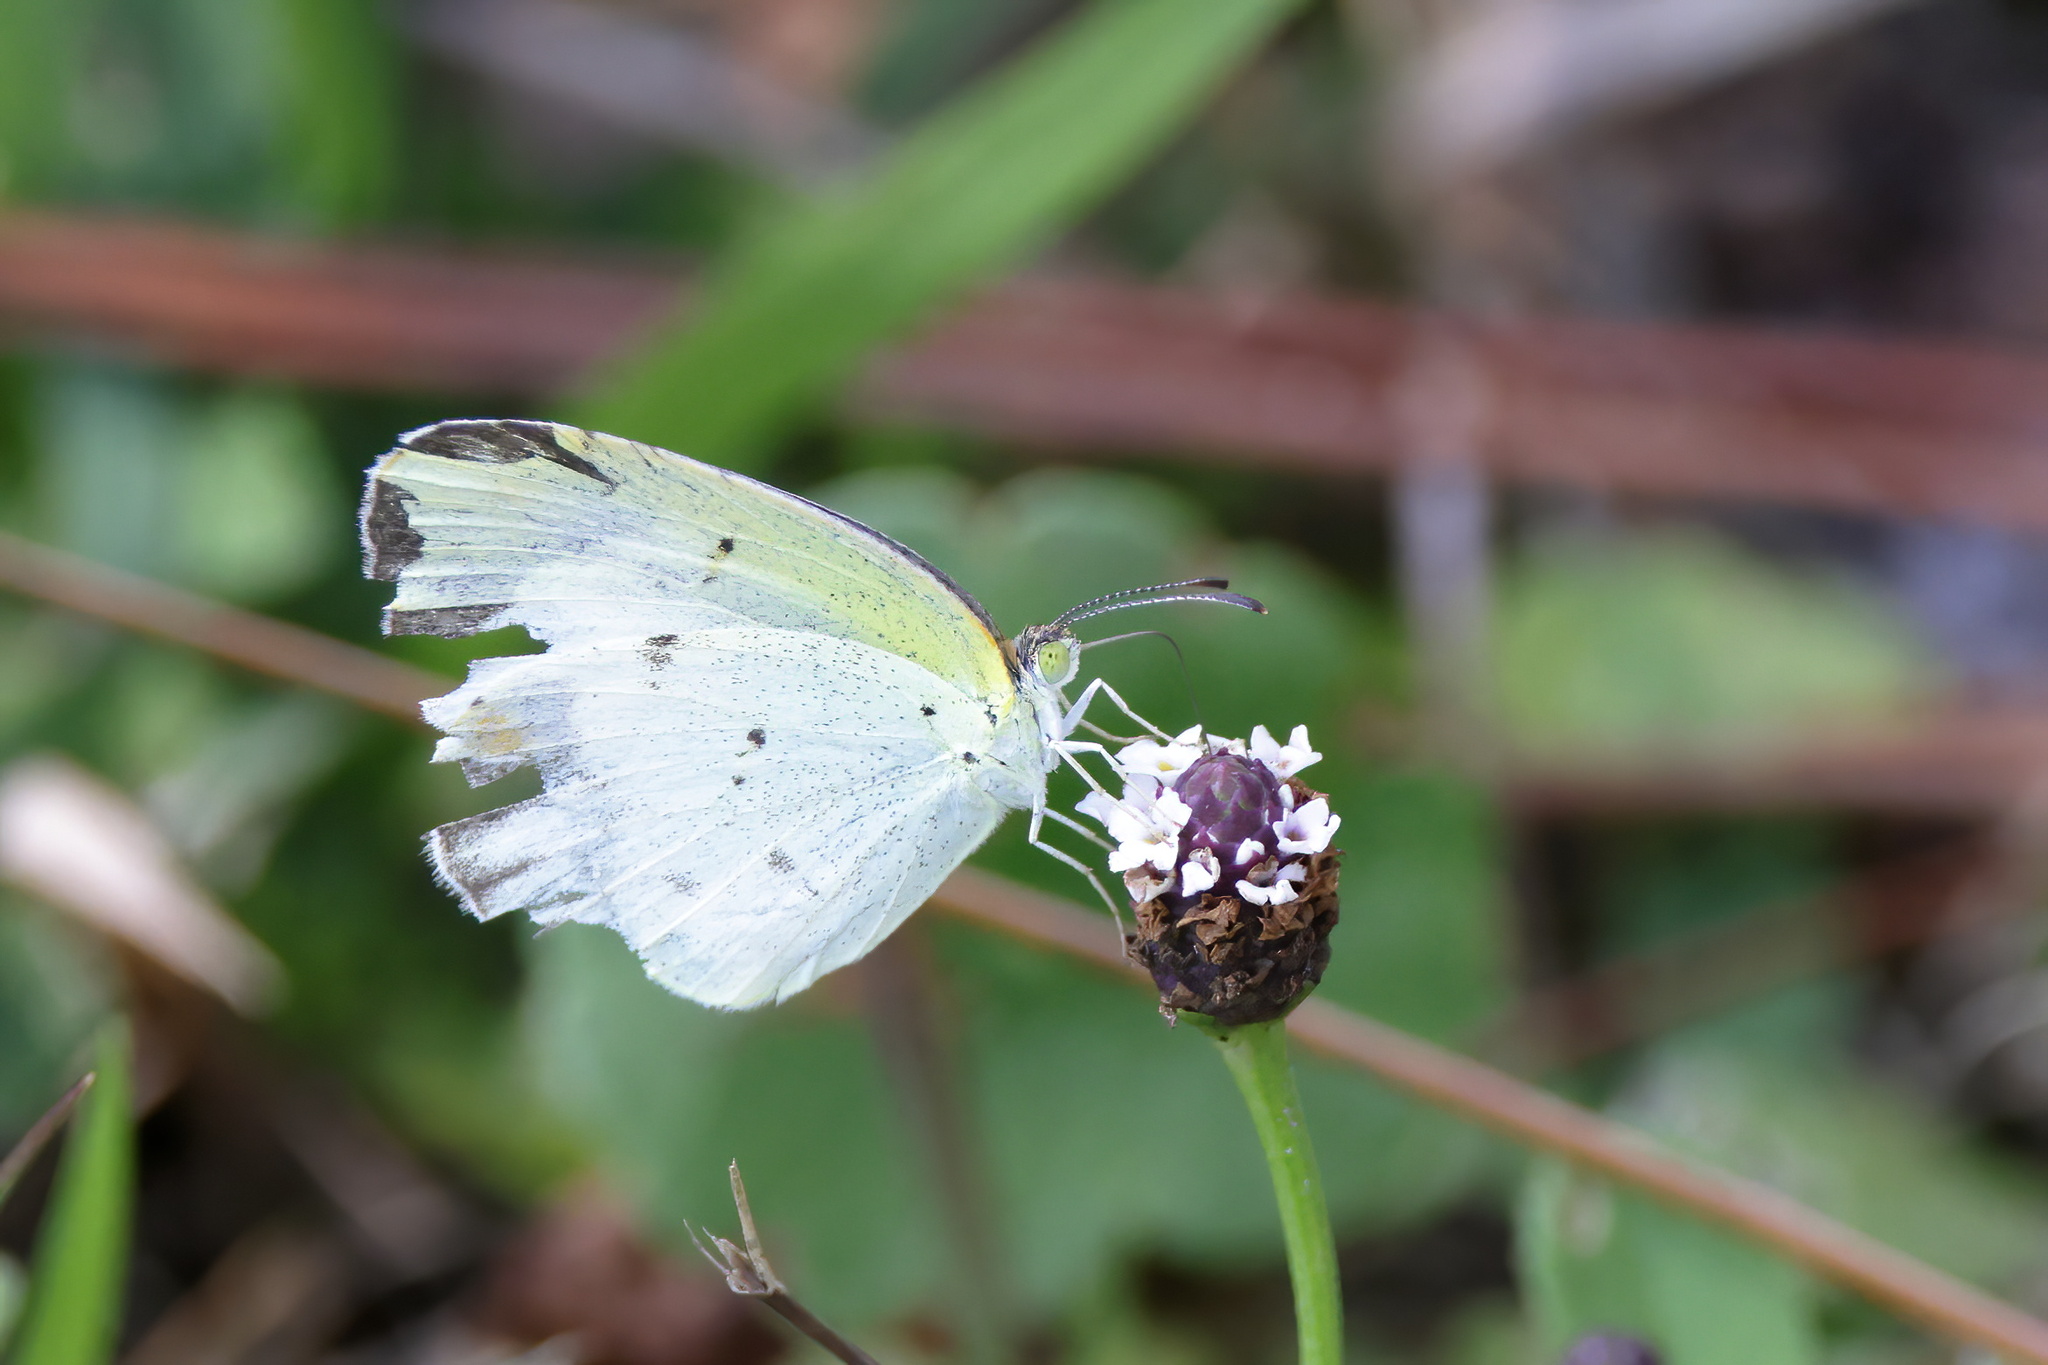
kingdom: Animalia
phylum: Arthropoda
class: Insecta
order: Lepidoptera
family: Pieridae
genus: Pyrisitia
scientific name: Pyrisitia lisa
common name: Little yellow
